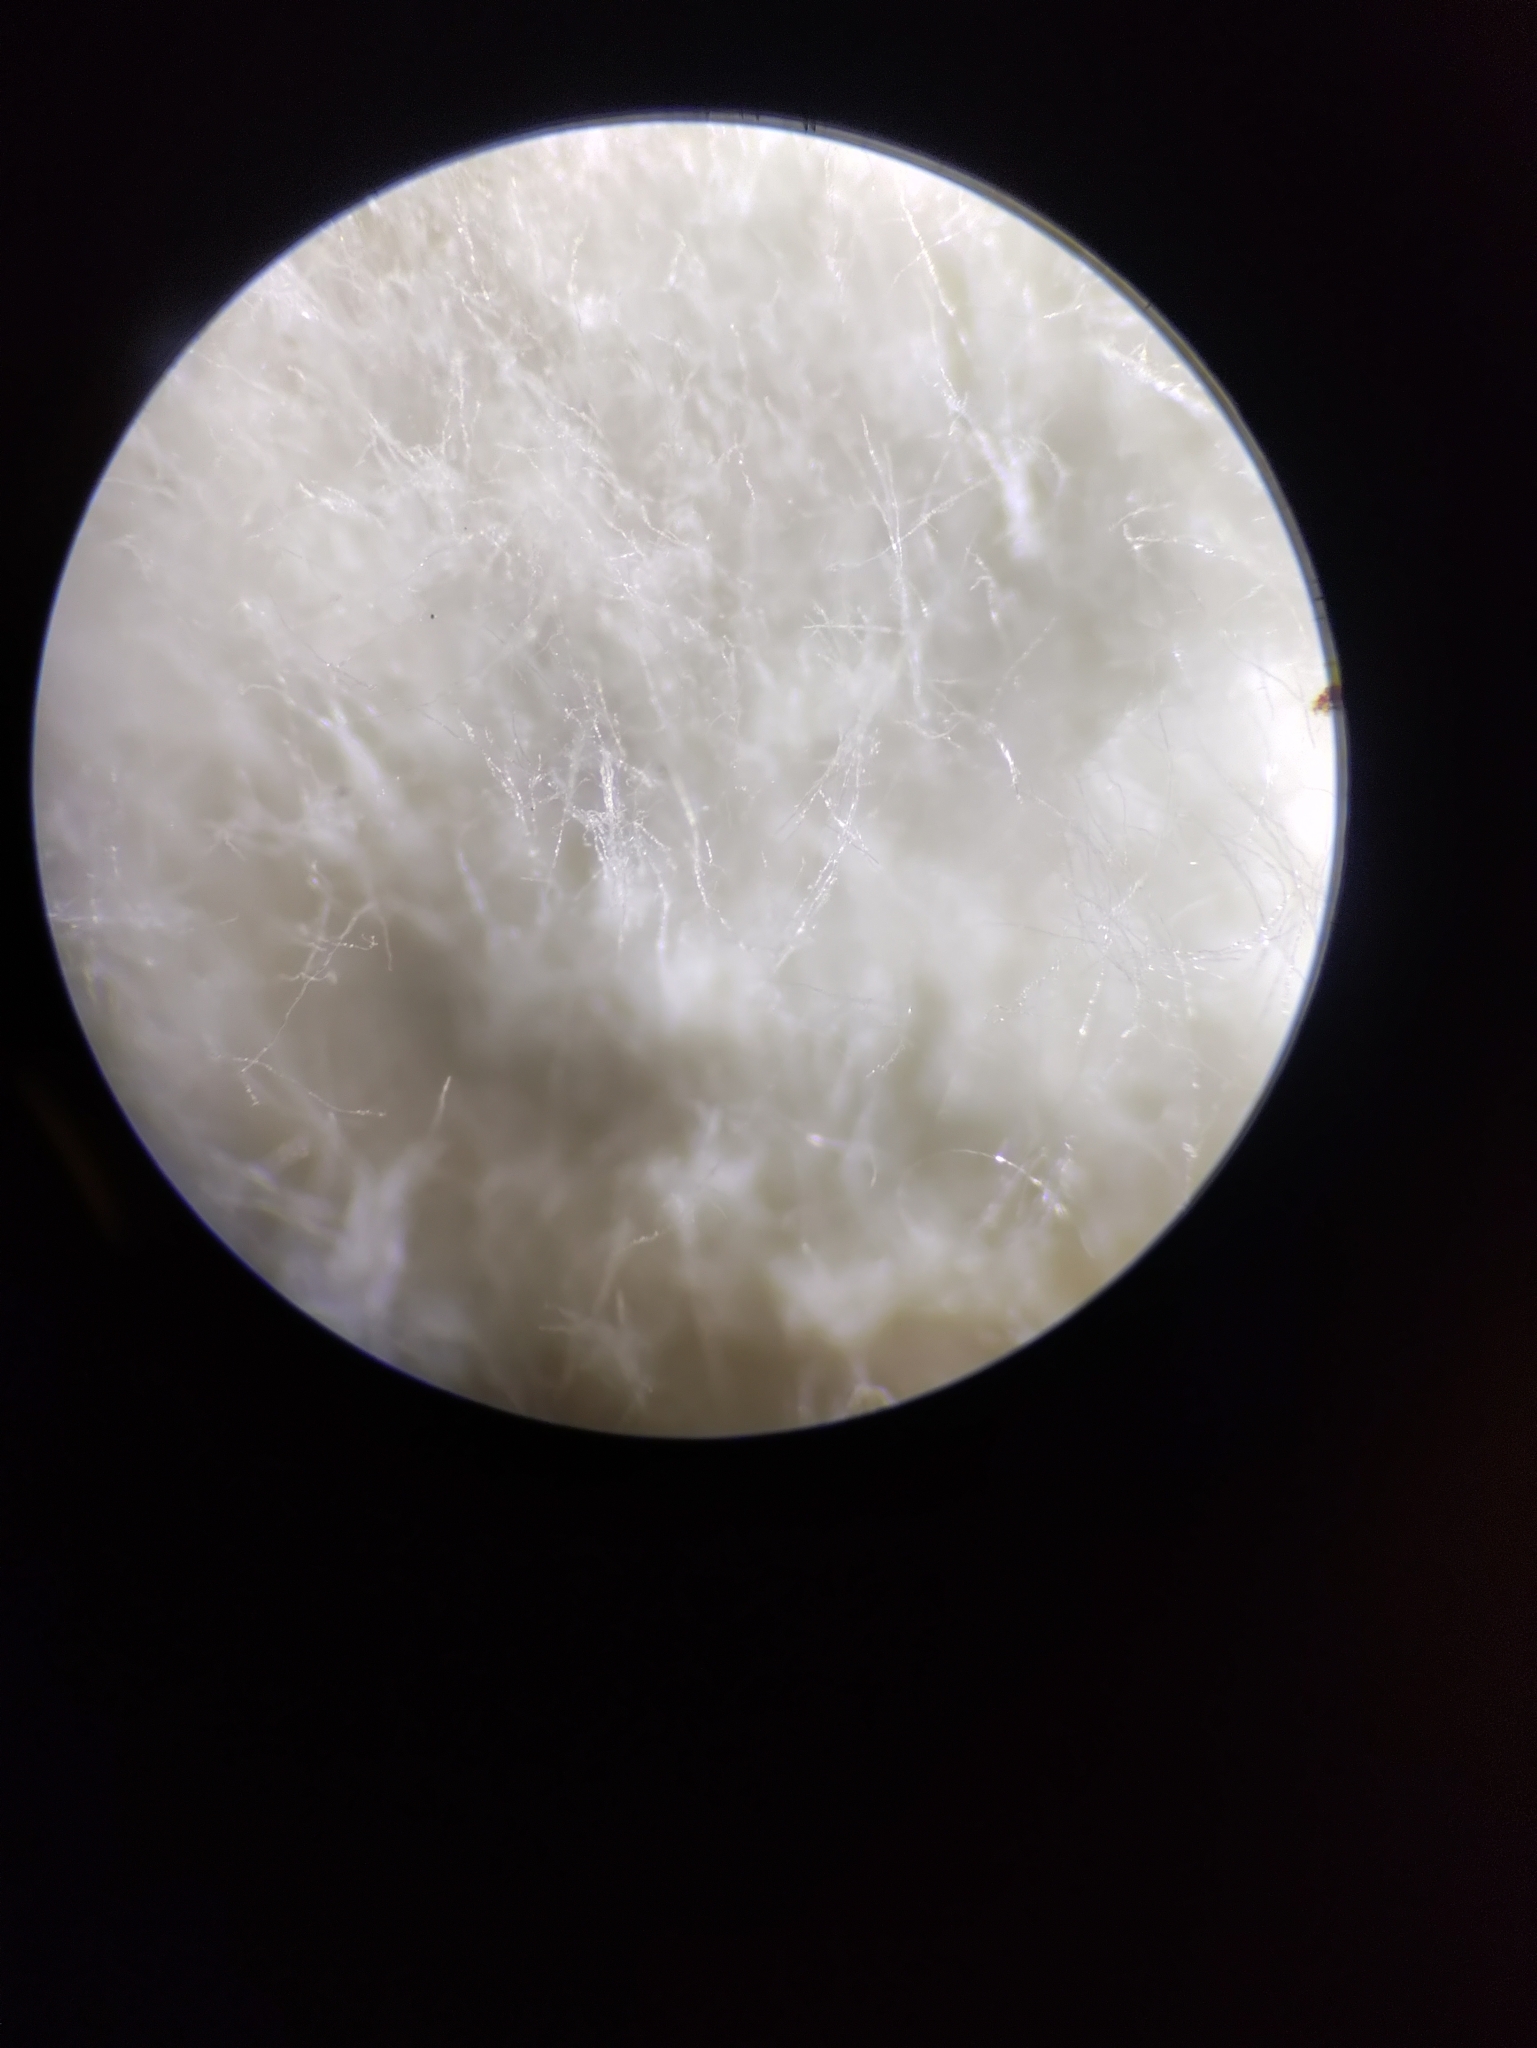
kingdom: Fungi
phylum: Basidiomycota
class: Agaricomycetes
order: Polyporales
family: Polyporaceae
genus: Trametes
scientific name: Trametes hirsuta
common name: Hairy bracket
